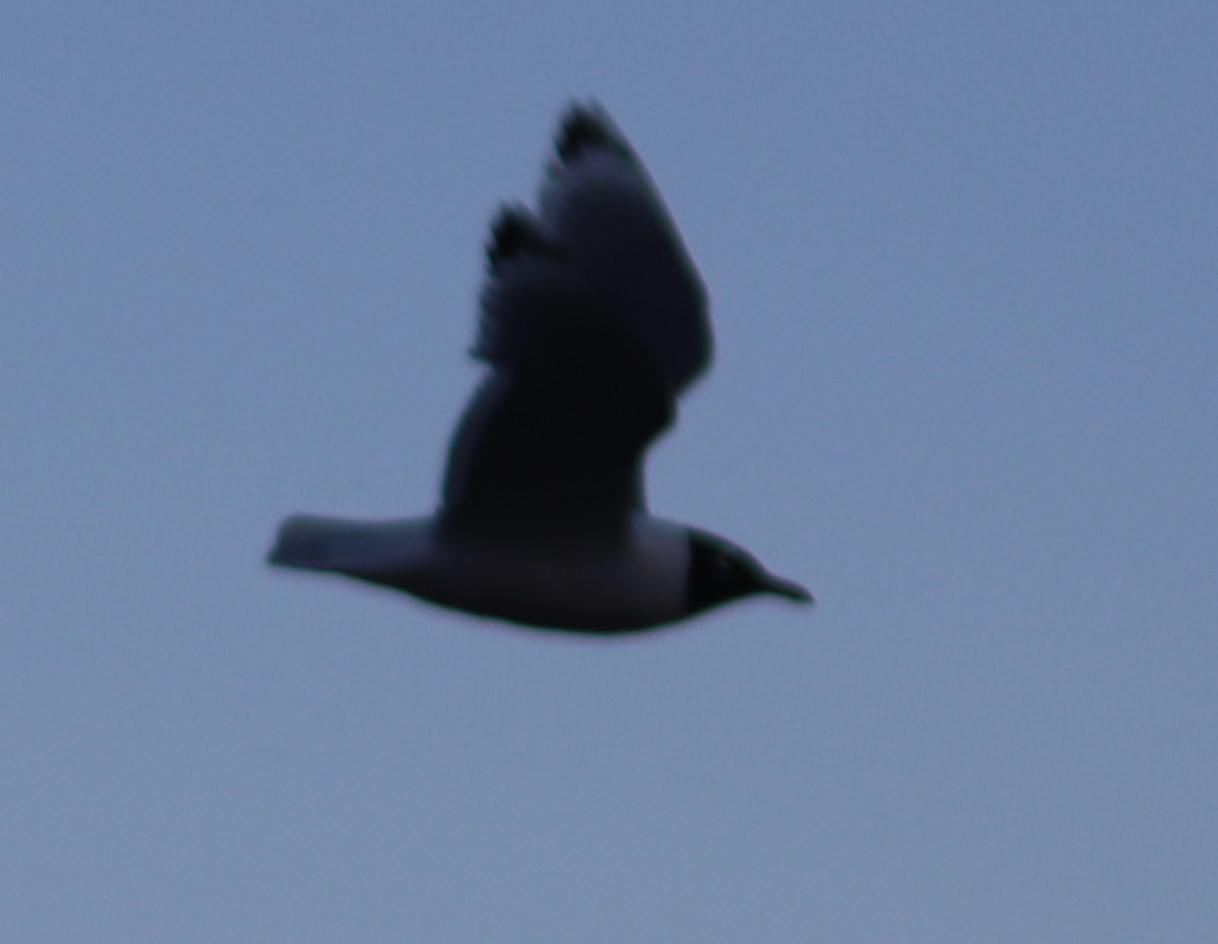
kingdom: Animalia
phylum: Chordata
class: Aves
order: Charadriiformes
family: Laridae
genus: Leucophaeus
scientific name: Leucophaeus pipixcan
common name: Franklin's gull
